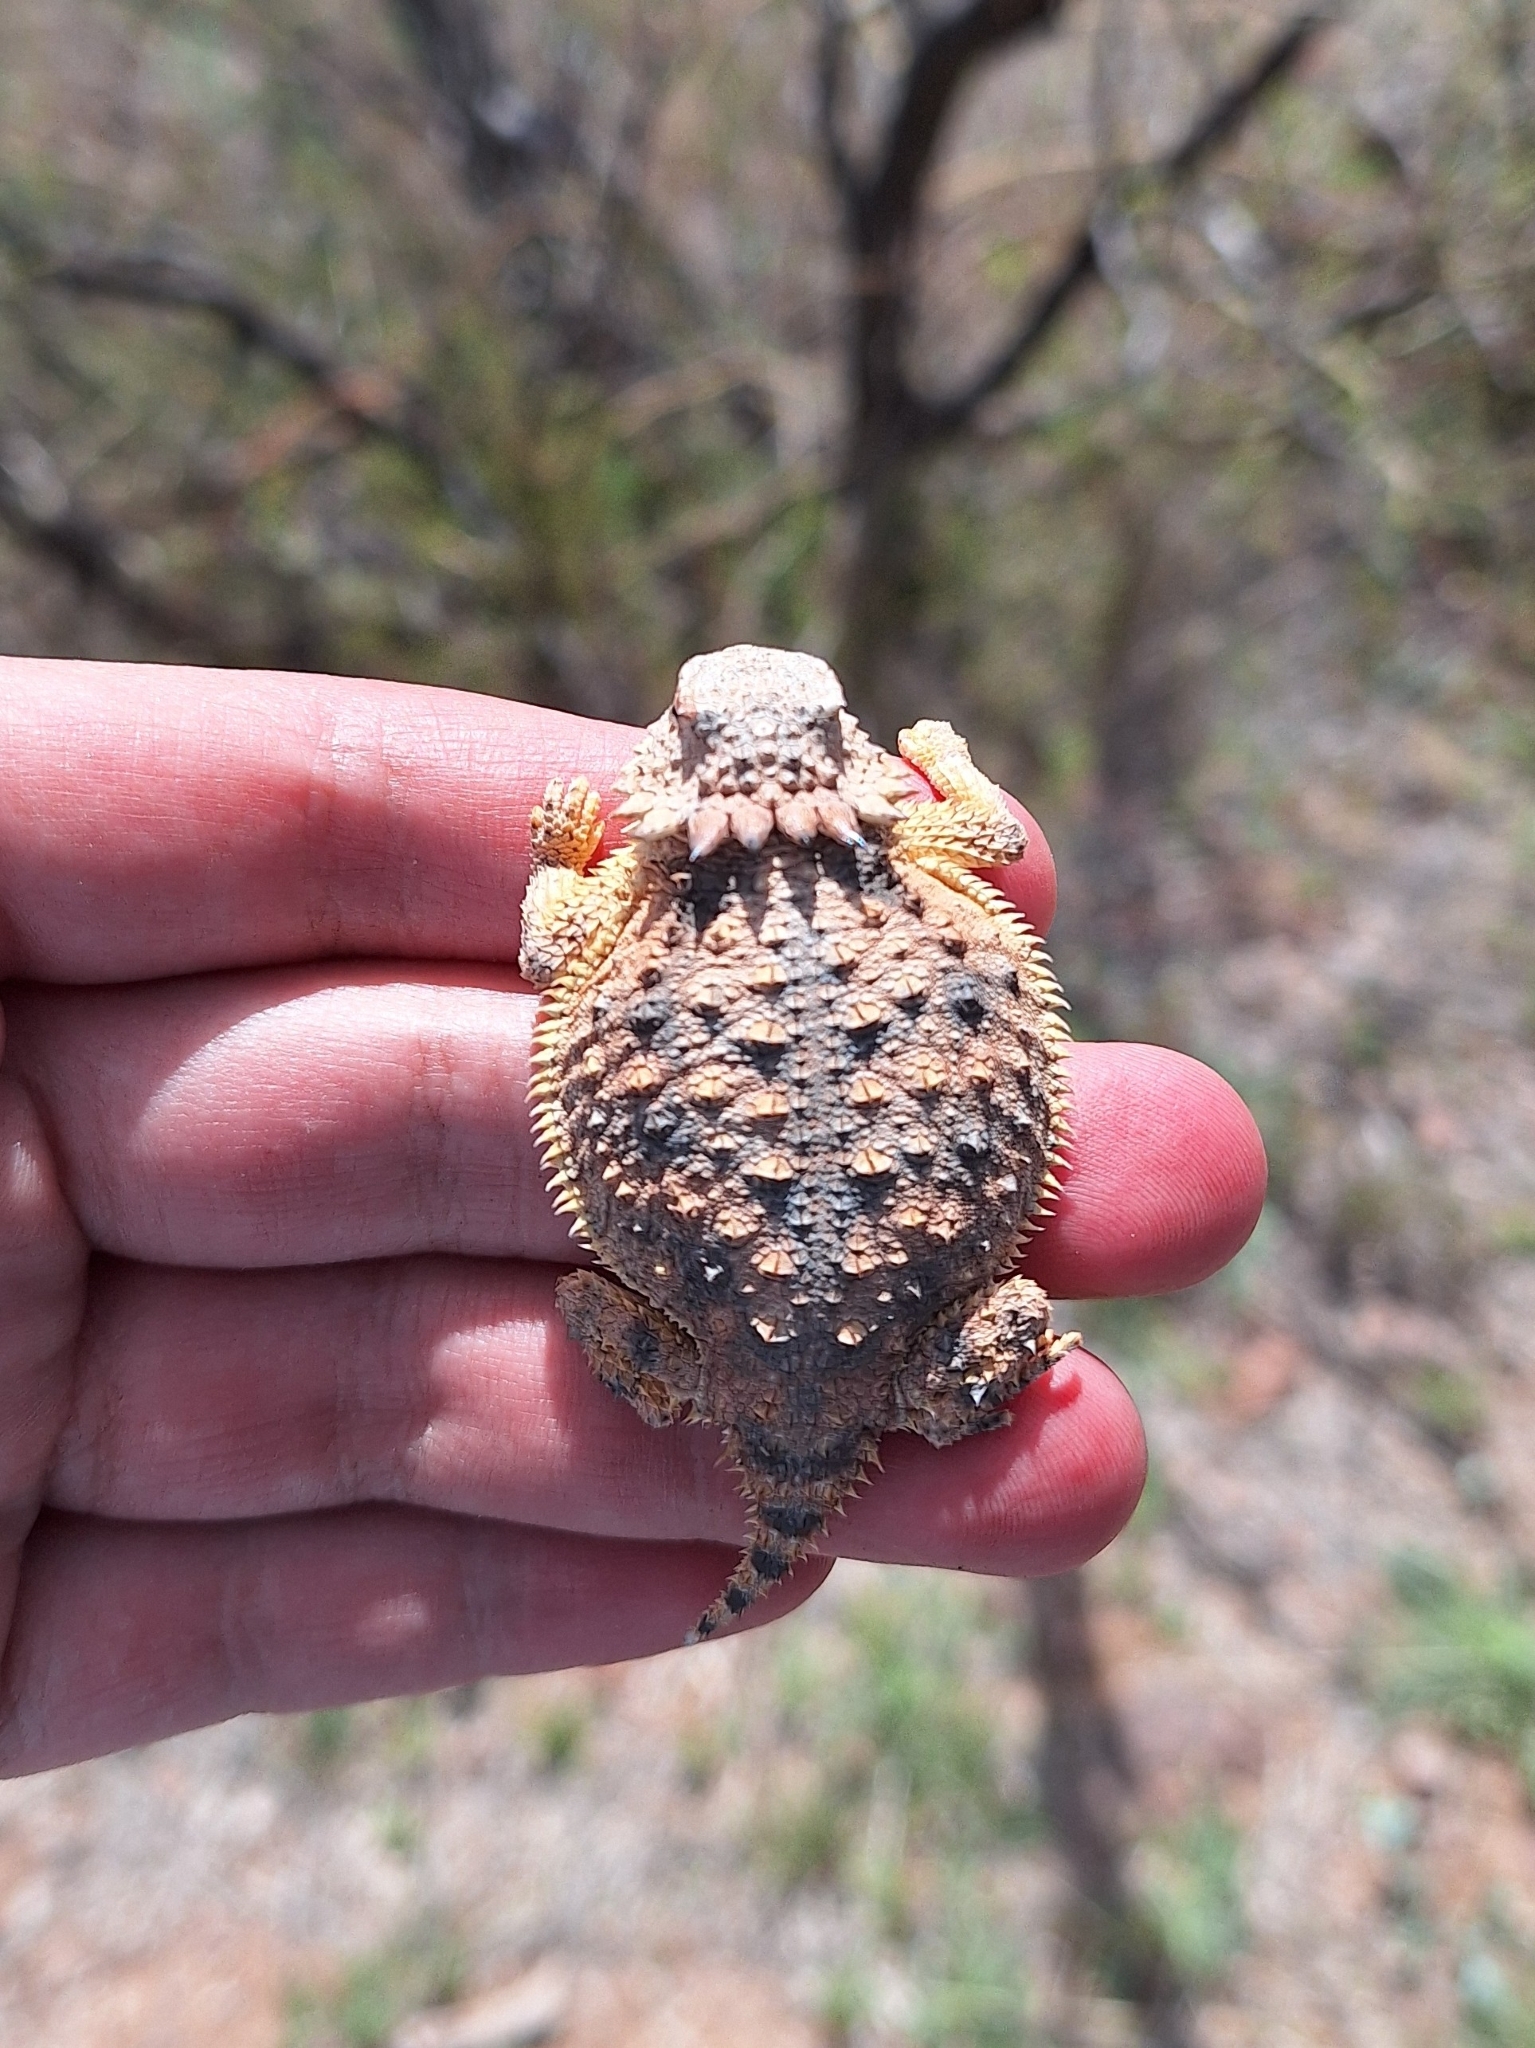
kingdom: Animalia
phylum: Chordata
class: Squamata
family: Phrynosomatidae
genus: Phrynosoma
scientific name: Phrynosoma solare
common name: Regal horned lizard
